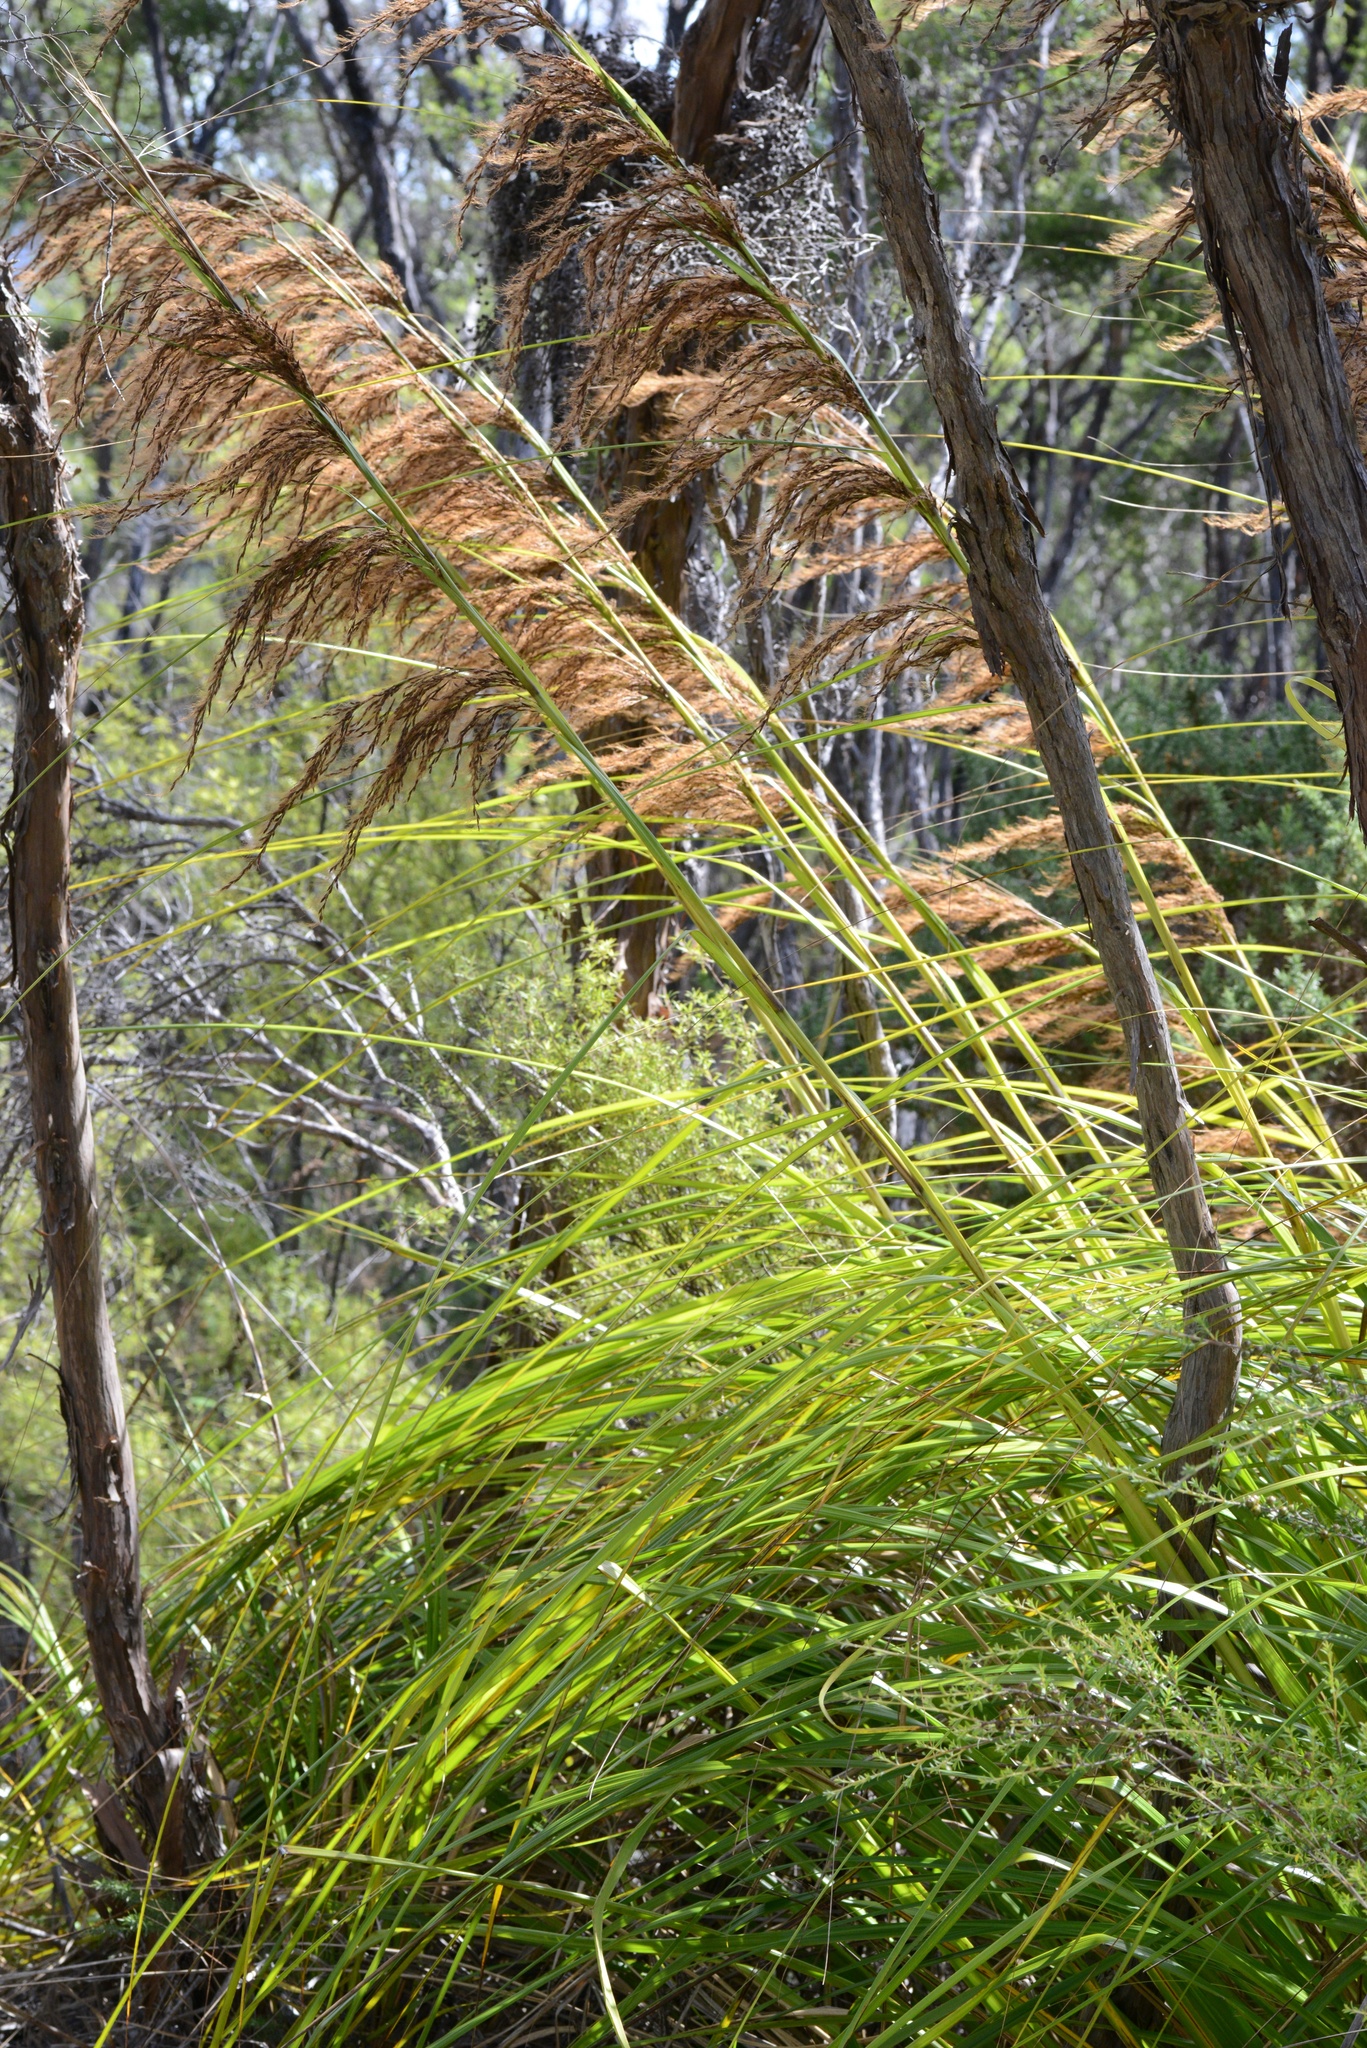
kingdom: Plantae
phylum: Tracheophyta
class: Liliopsida
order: Poales
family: Cyperaceae
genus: Gahnia
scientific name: Gahnia xanthocarpa
